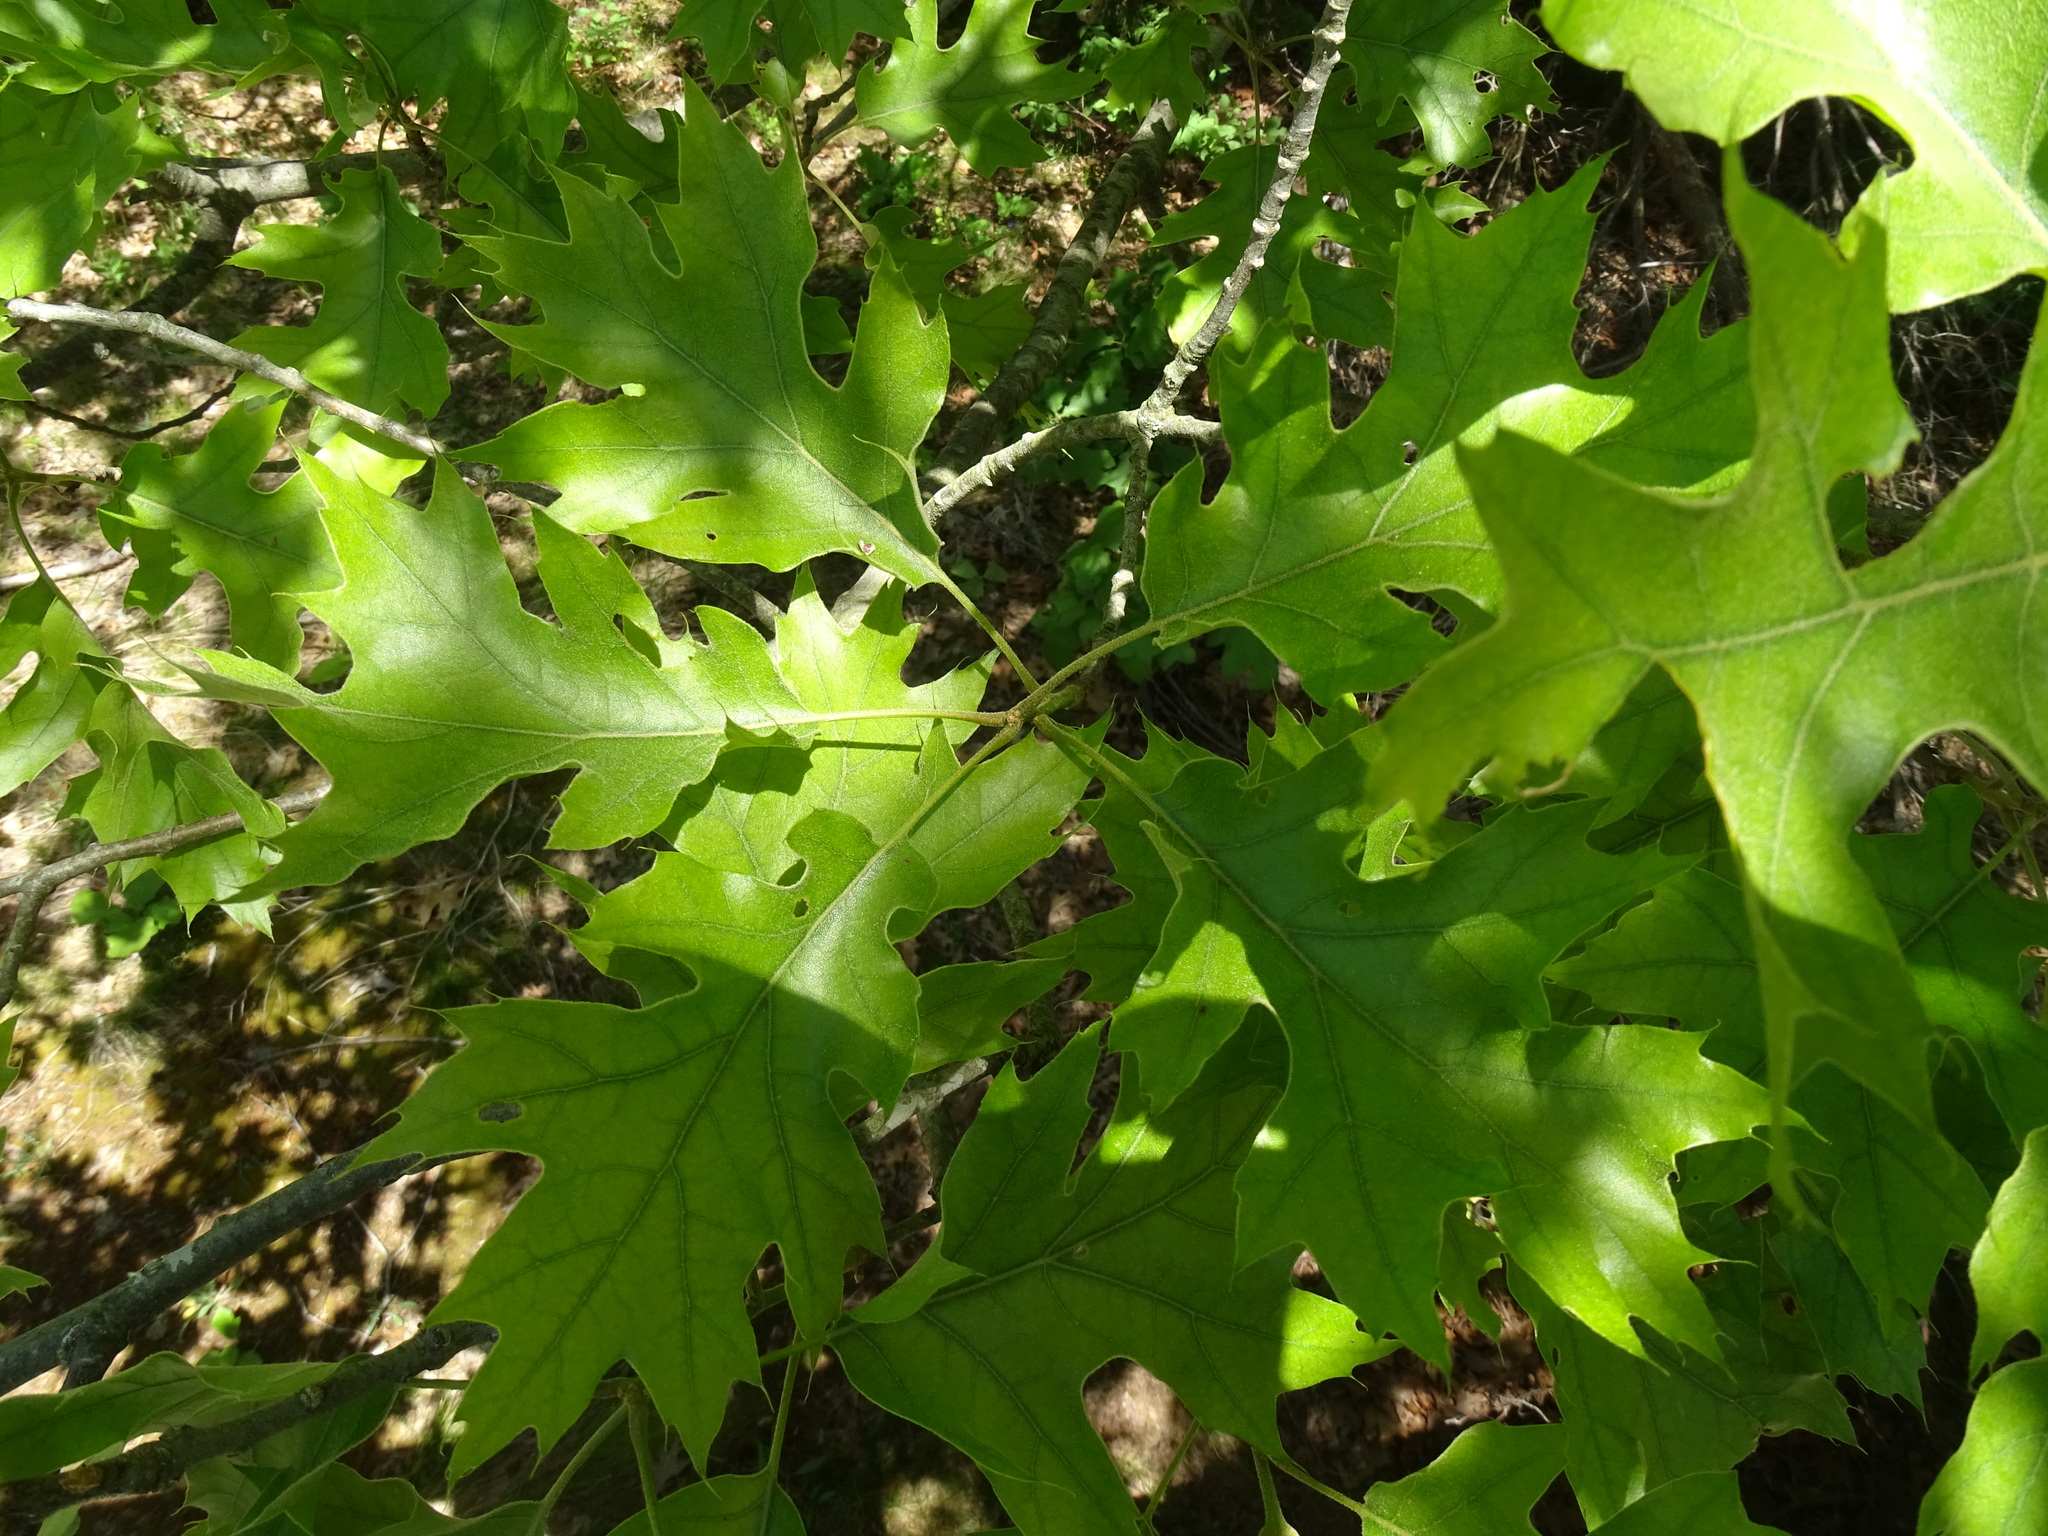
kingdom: Plantae
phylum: Tracheophyta
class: Magnoliopsida
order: Fagales
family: Fagaceae
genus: Quercus
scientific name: Quercus velutina
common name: Black oak
